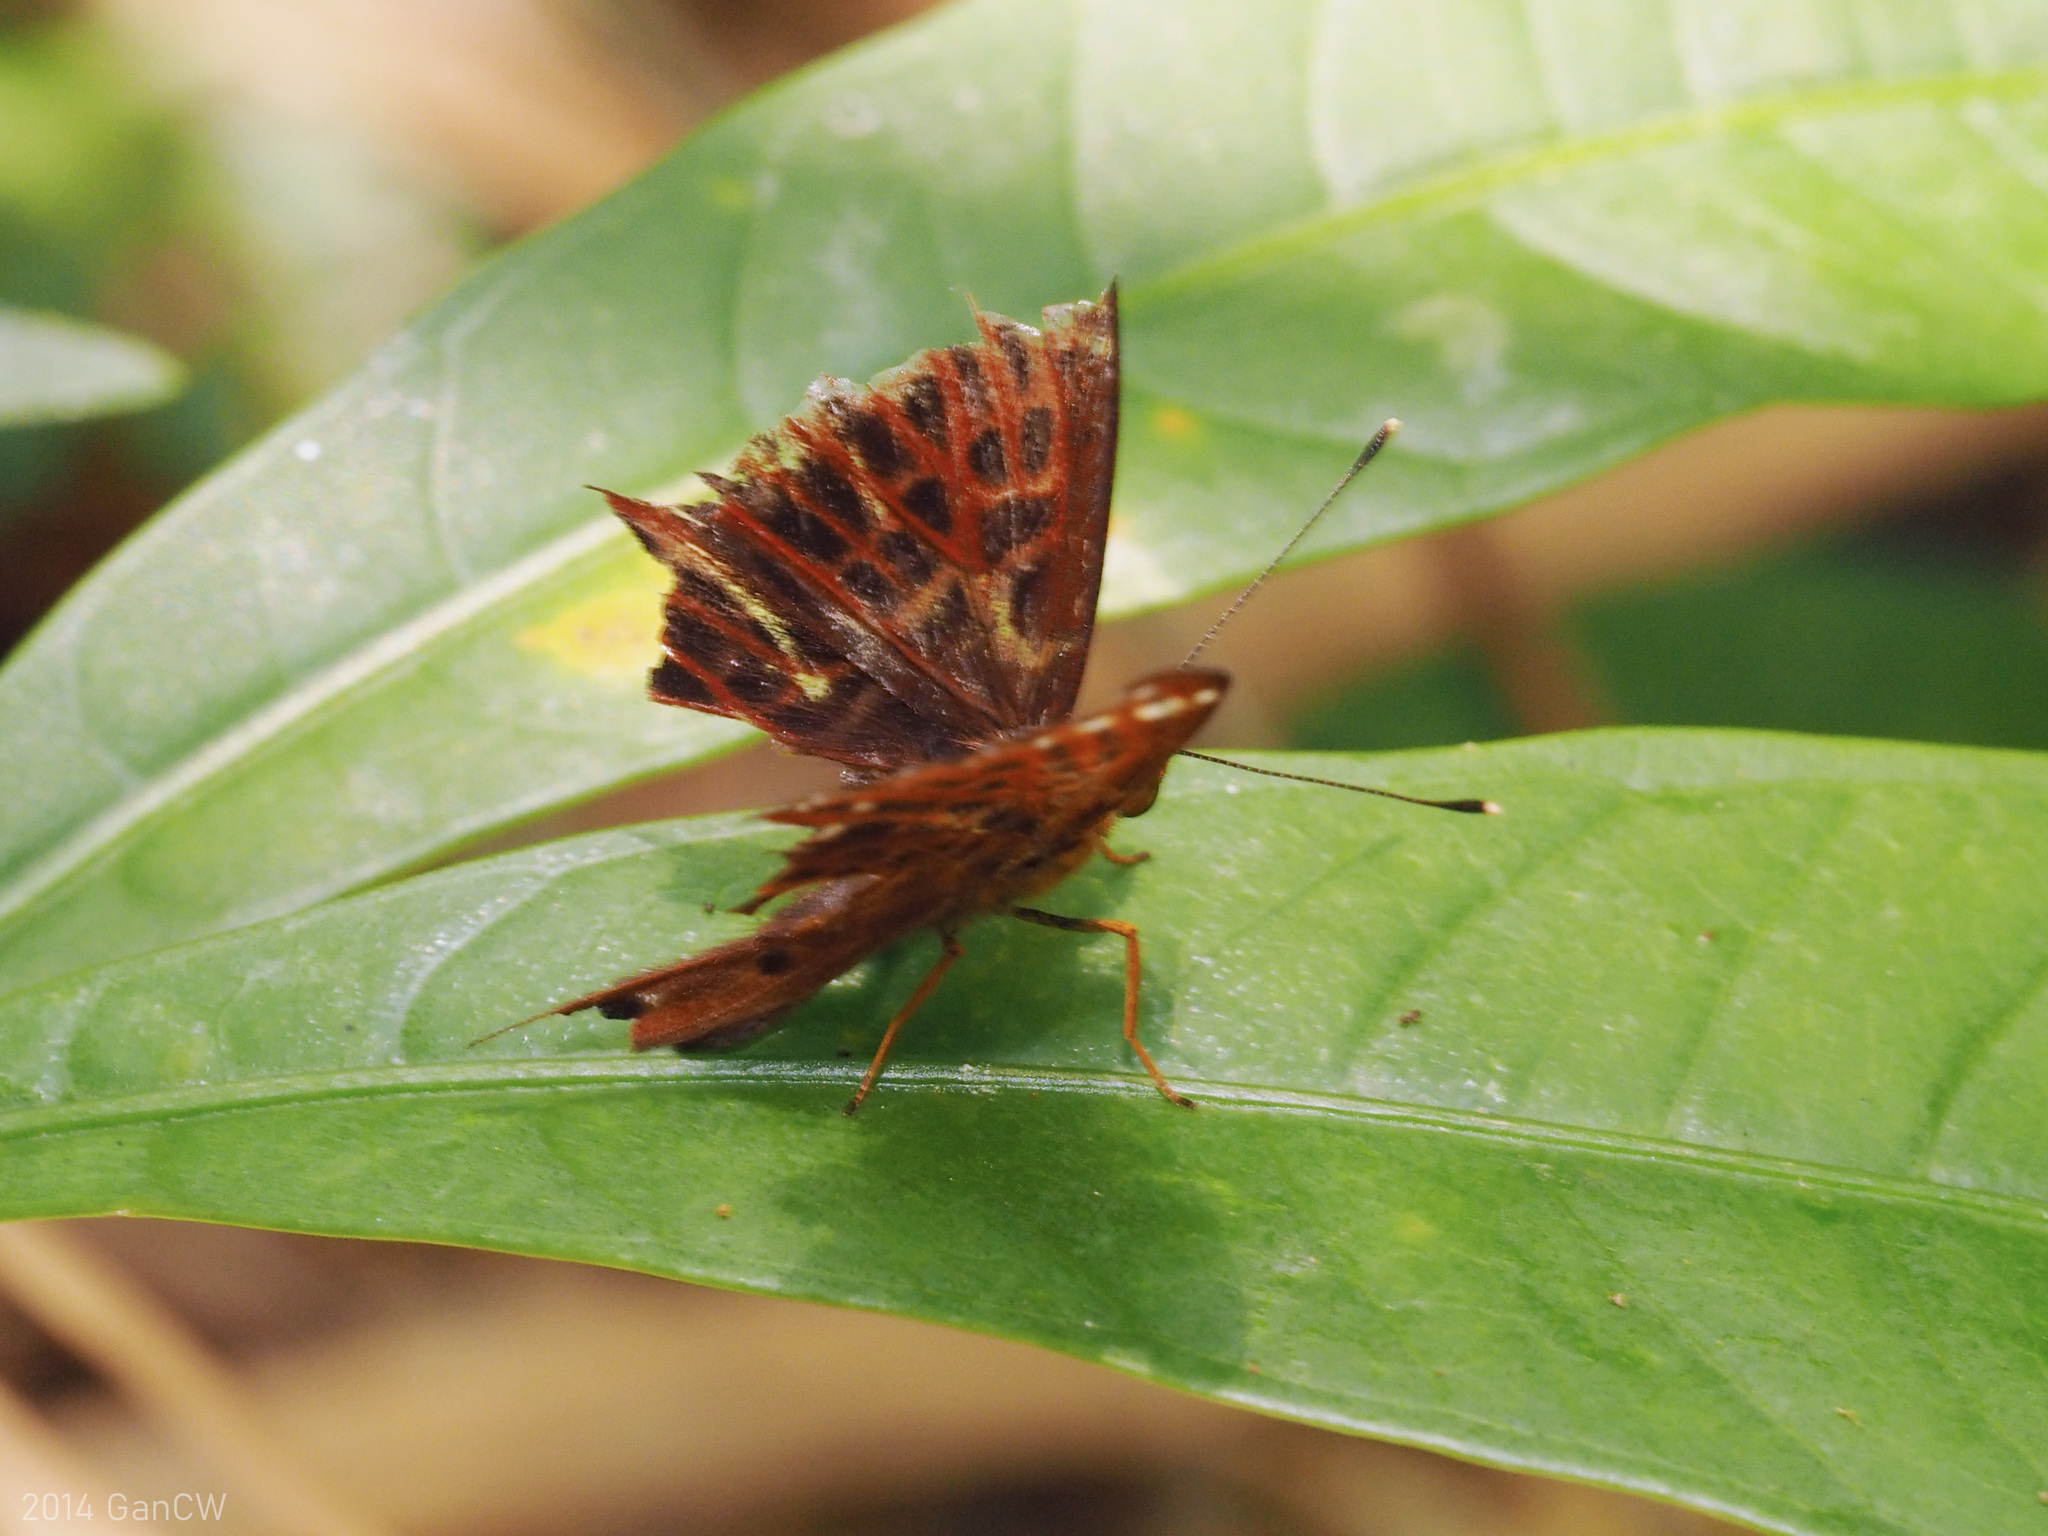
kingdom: Animalia
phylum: Arthropoda
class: Insecta
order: Lepidoptera
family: Riodinidae
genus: Zemeros
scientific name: Zemeros flegyas
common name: Punchinello
